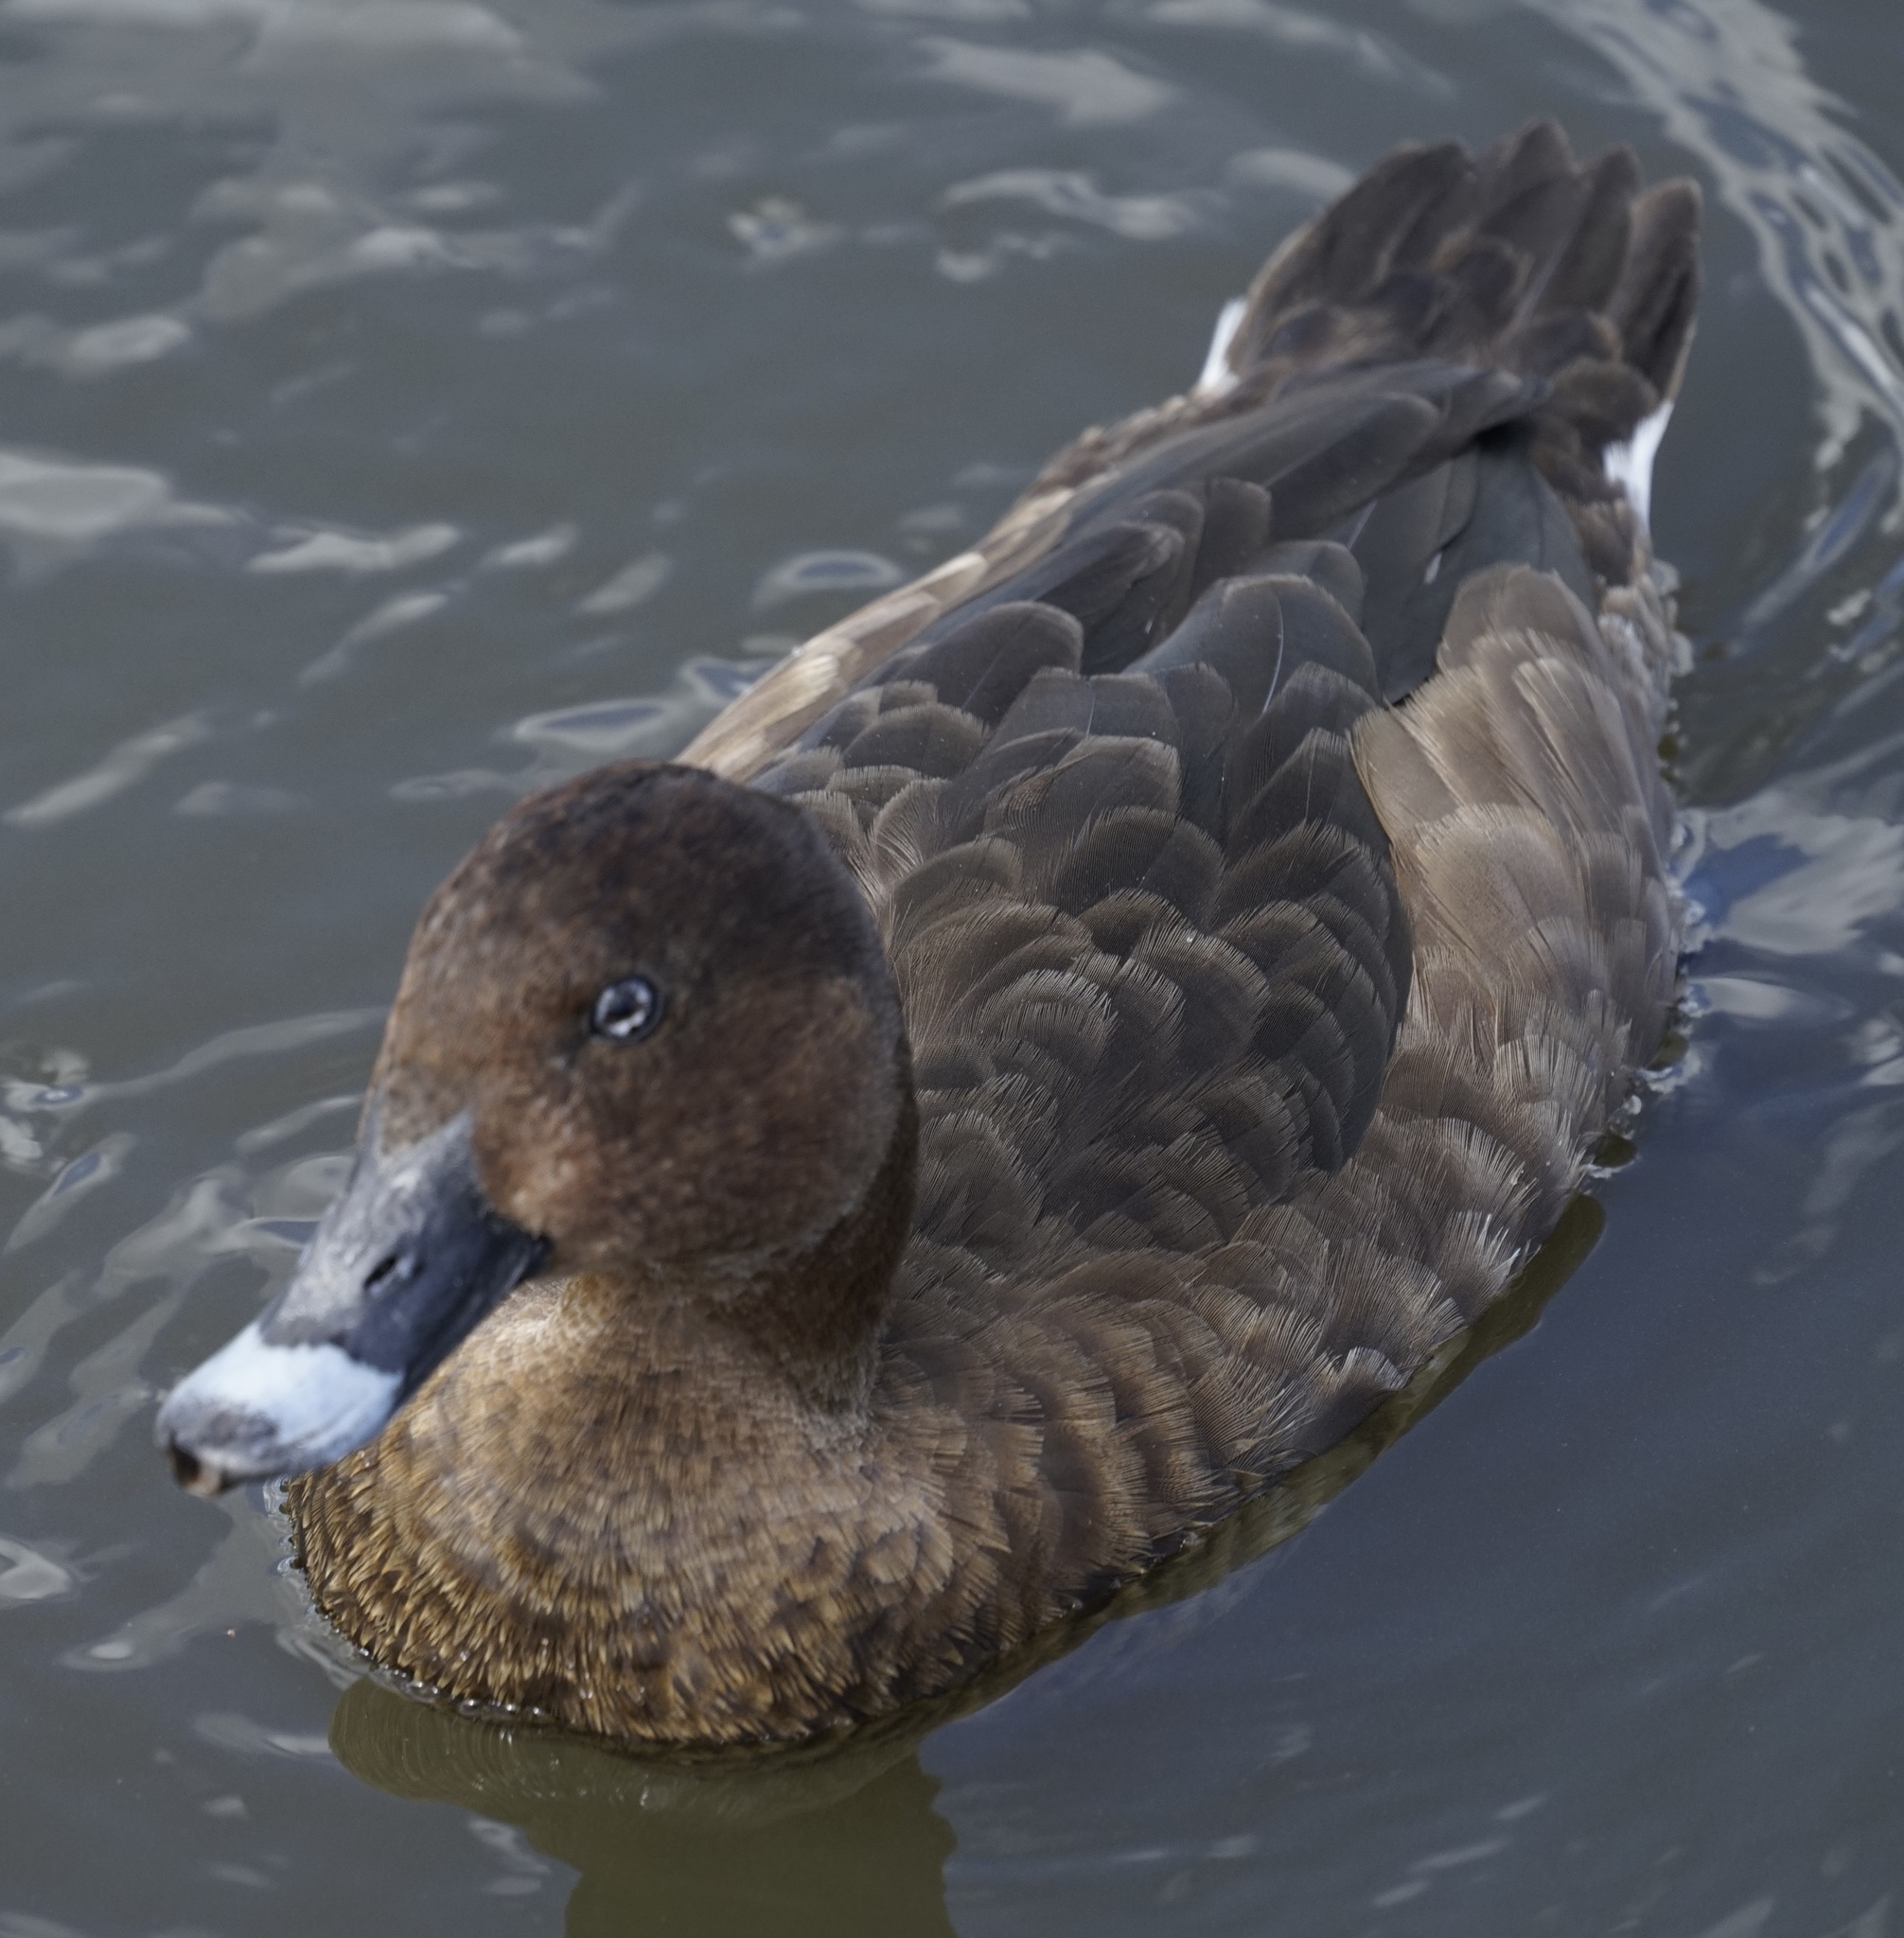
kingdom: Animalia
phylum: Chordata
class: Aves
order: Anseriformes
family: Anatidae
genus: Aythya
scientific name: Aythya australis
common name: Hardhead
